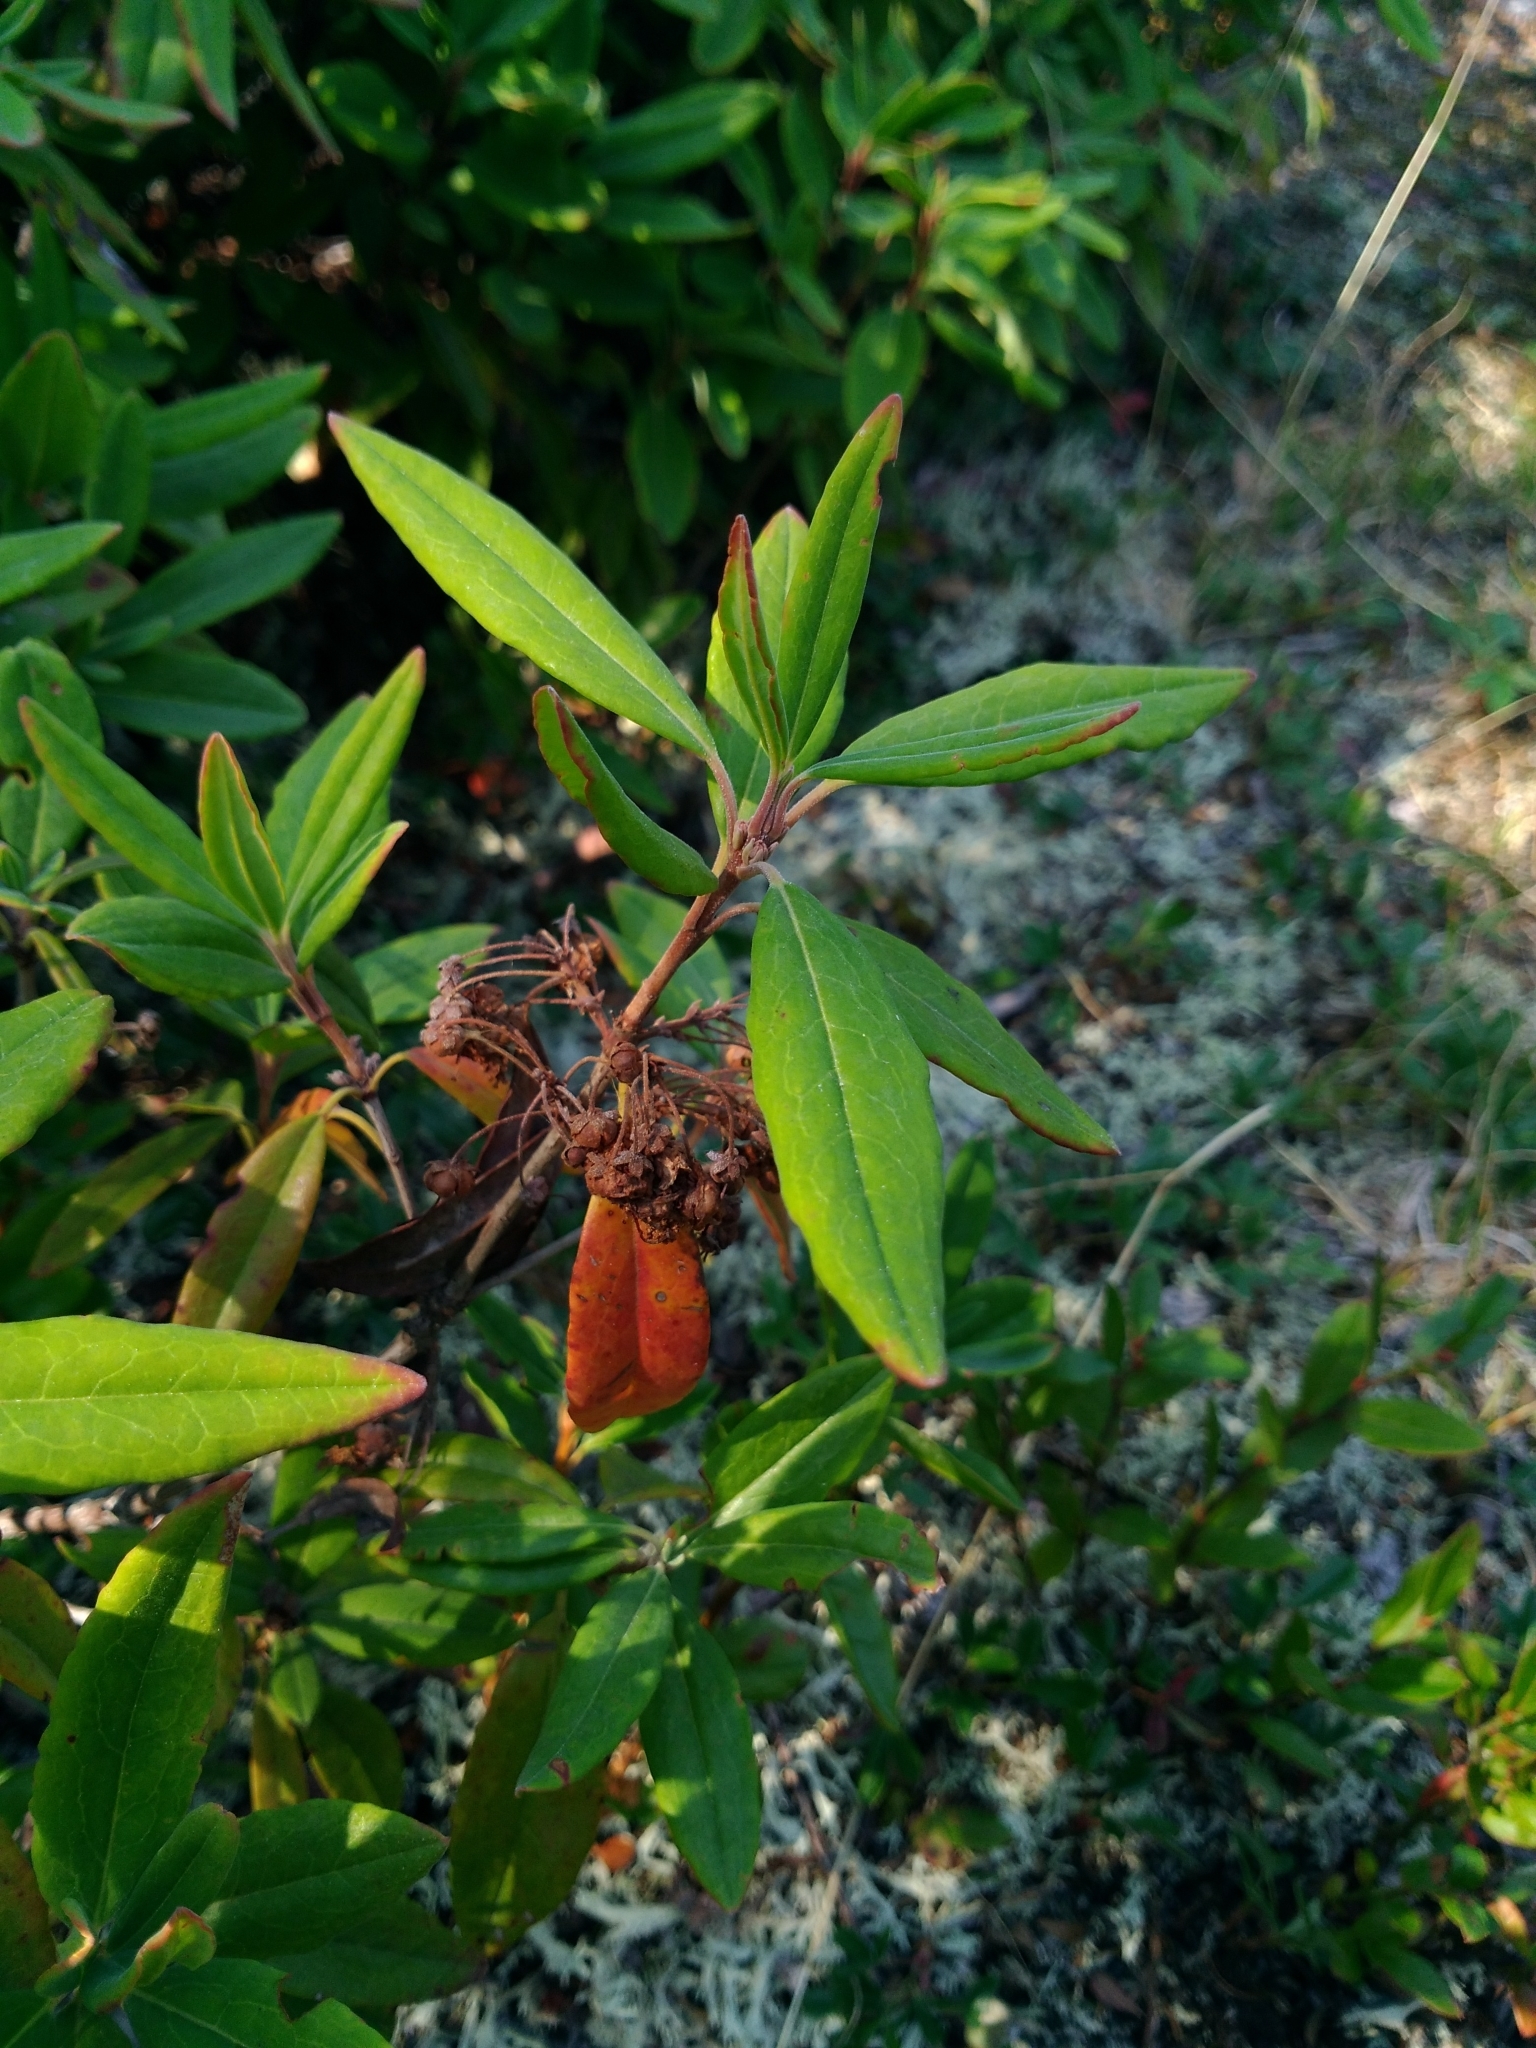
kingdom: Plantae
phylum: Tracheophyta
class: Magnoliopsida
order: Ericales
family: Ericaceae
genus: Kalmia
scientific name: Kalmia angustifolia
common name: Sheep-laurel
